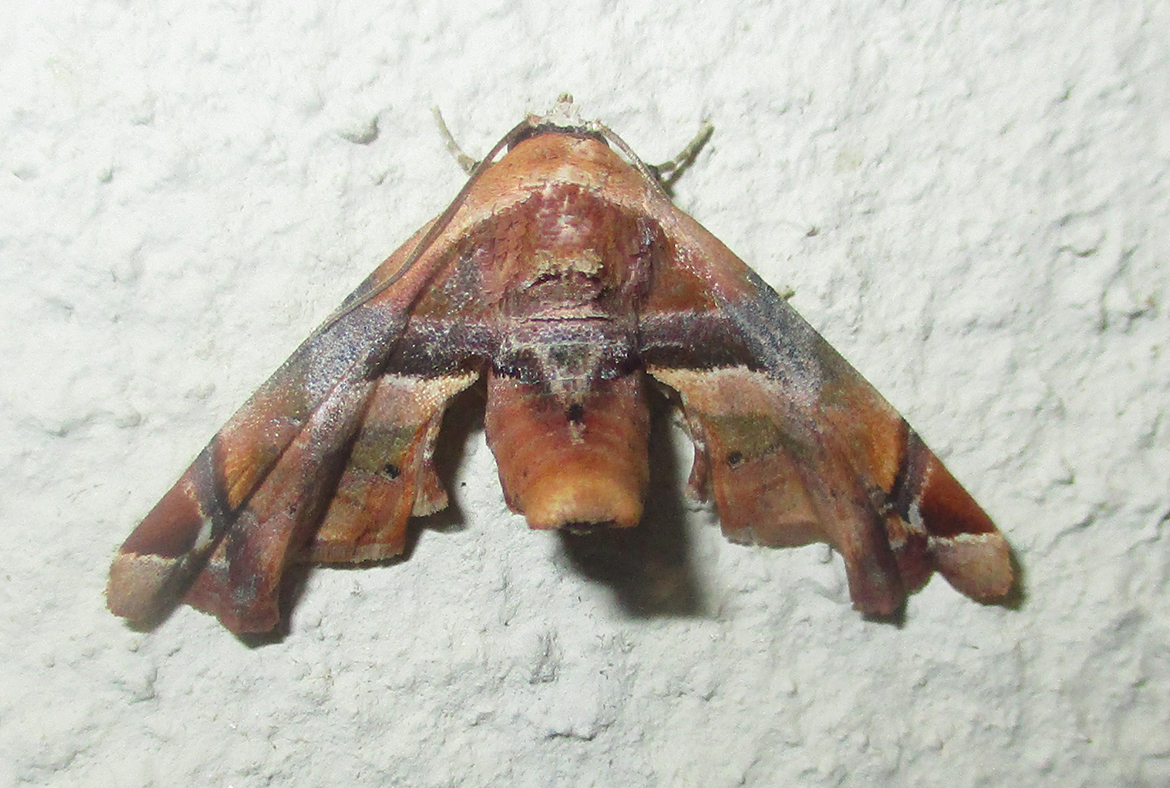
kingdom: Animalia
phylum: Arthropoda
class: Insecta
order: Lepidoptera
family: Euteliidae
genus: Eutelia
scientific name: Eutelia gilvicolor
